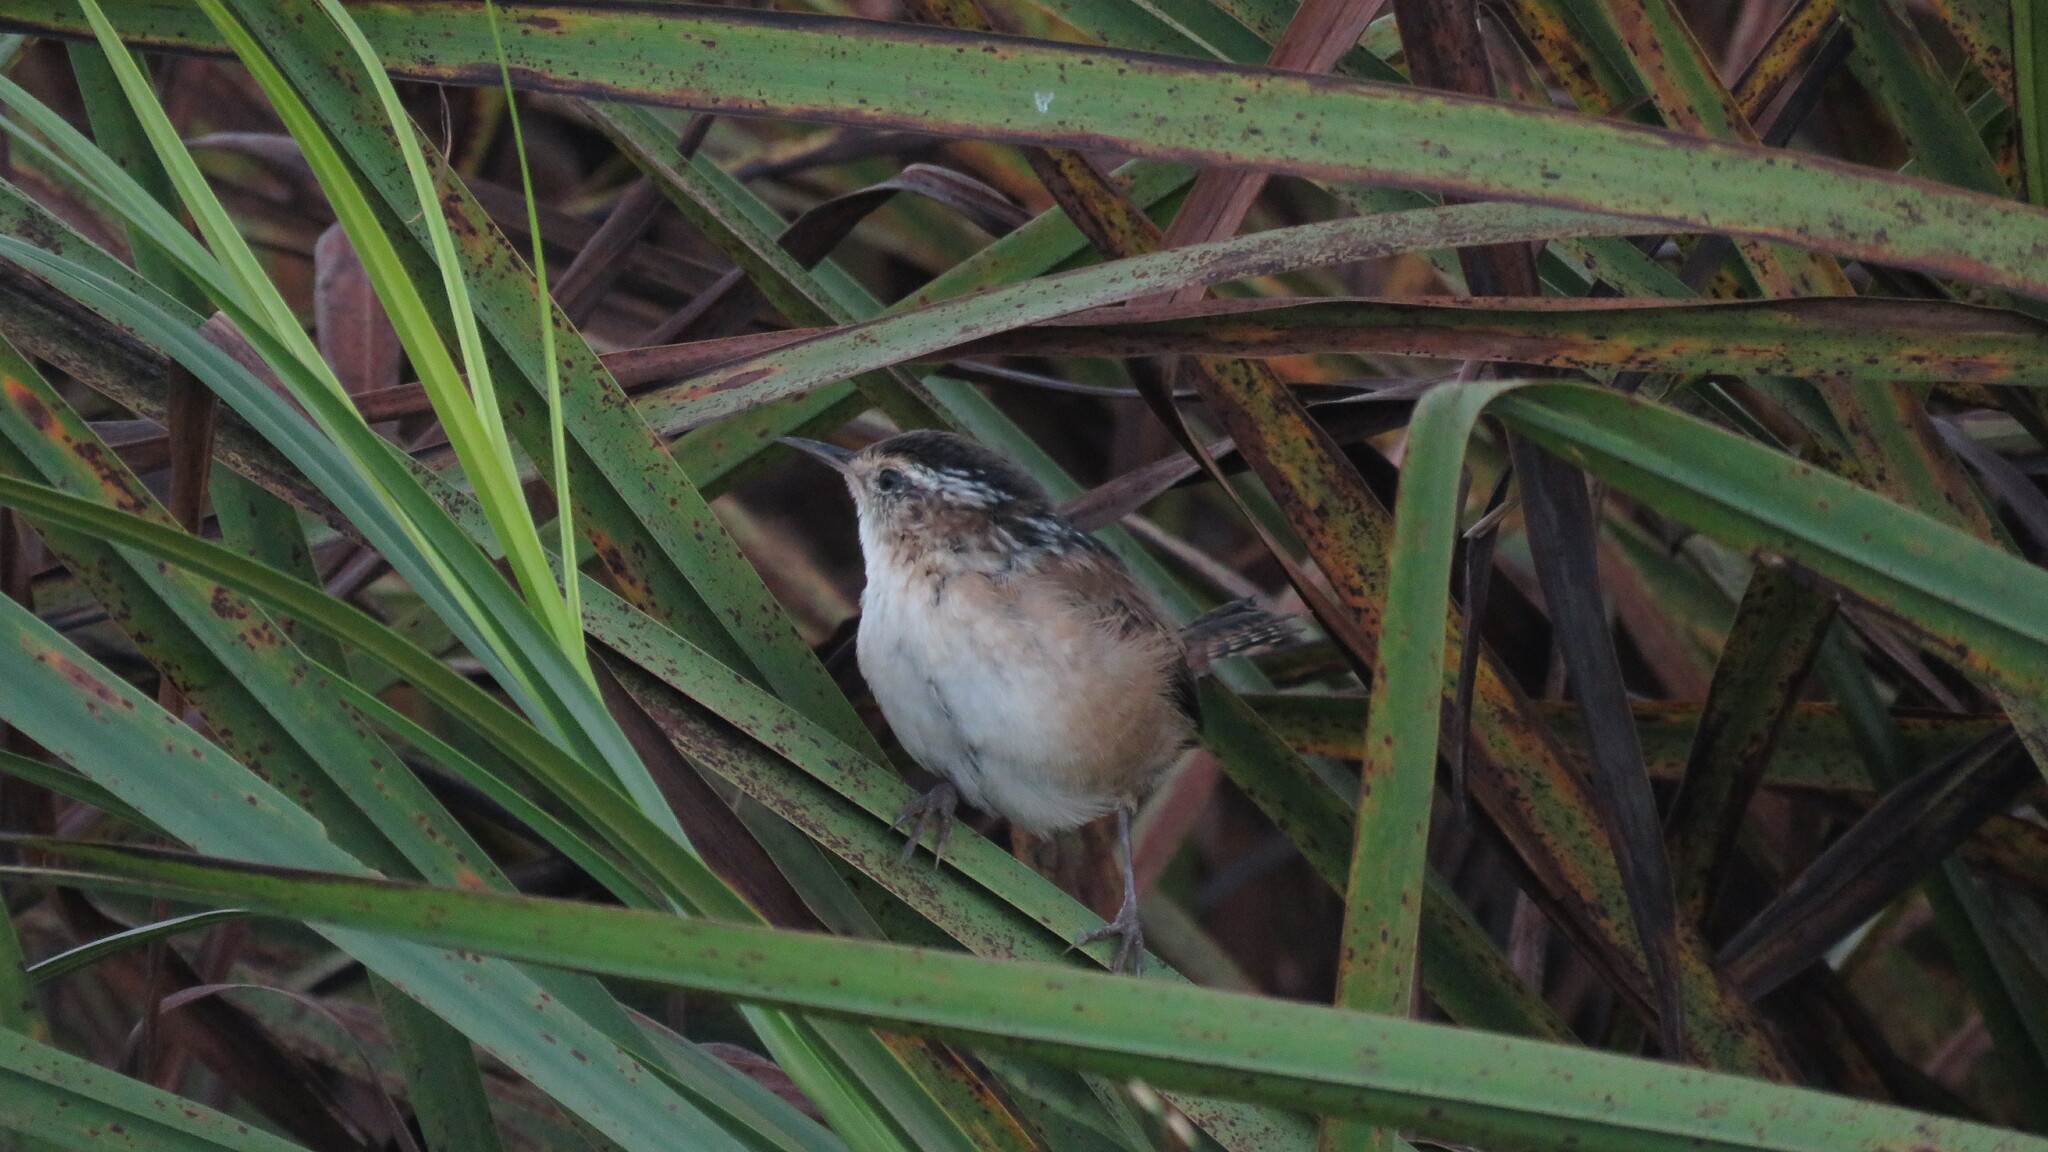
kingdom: Animalia
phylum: Chordata
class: Aves
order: Passeriformes
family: Troglodytidae
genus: Cistothorus
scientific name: Cistothorus palustris
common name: Marsh wren
